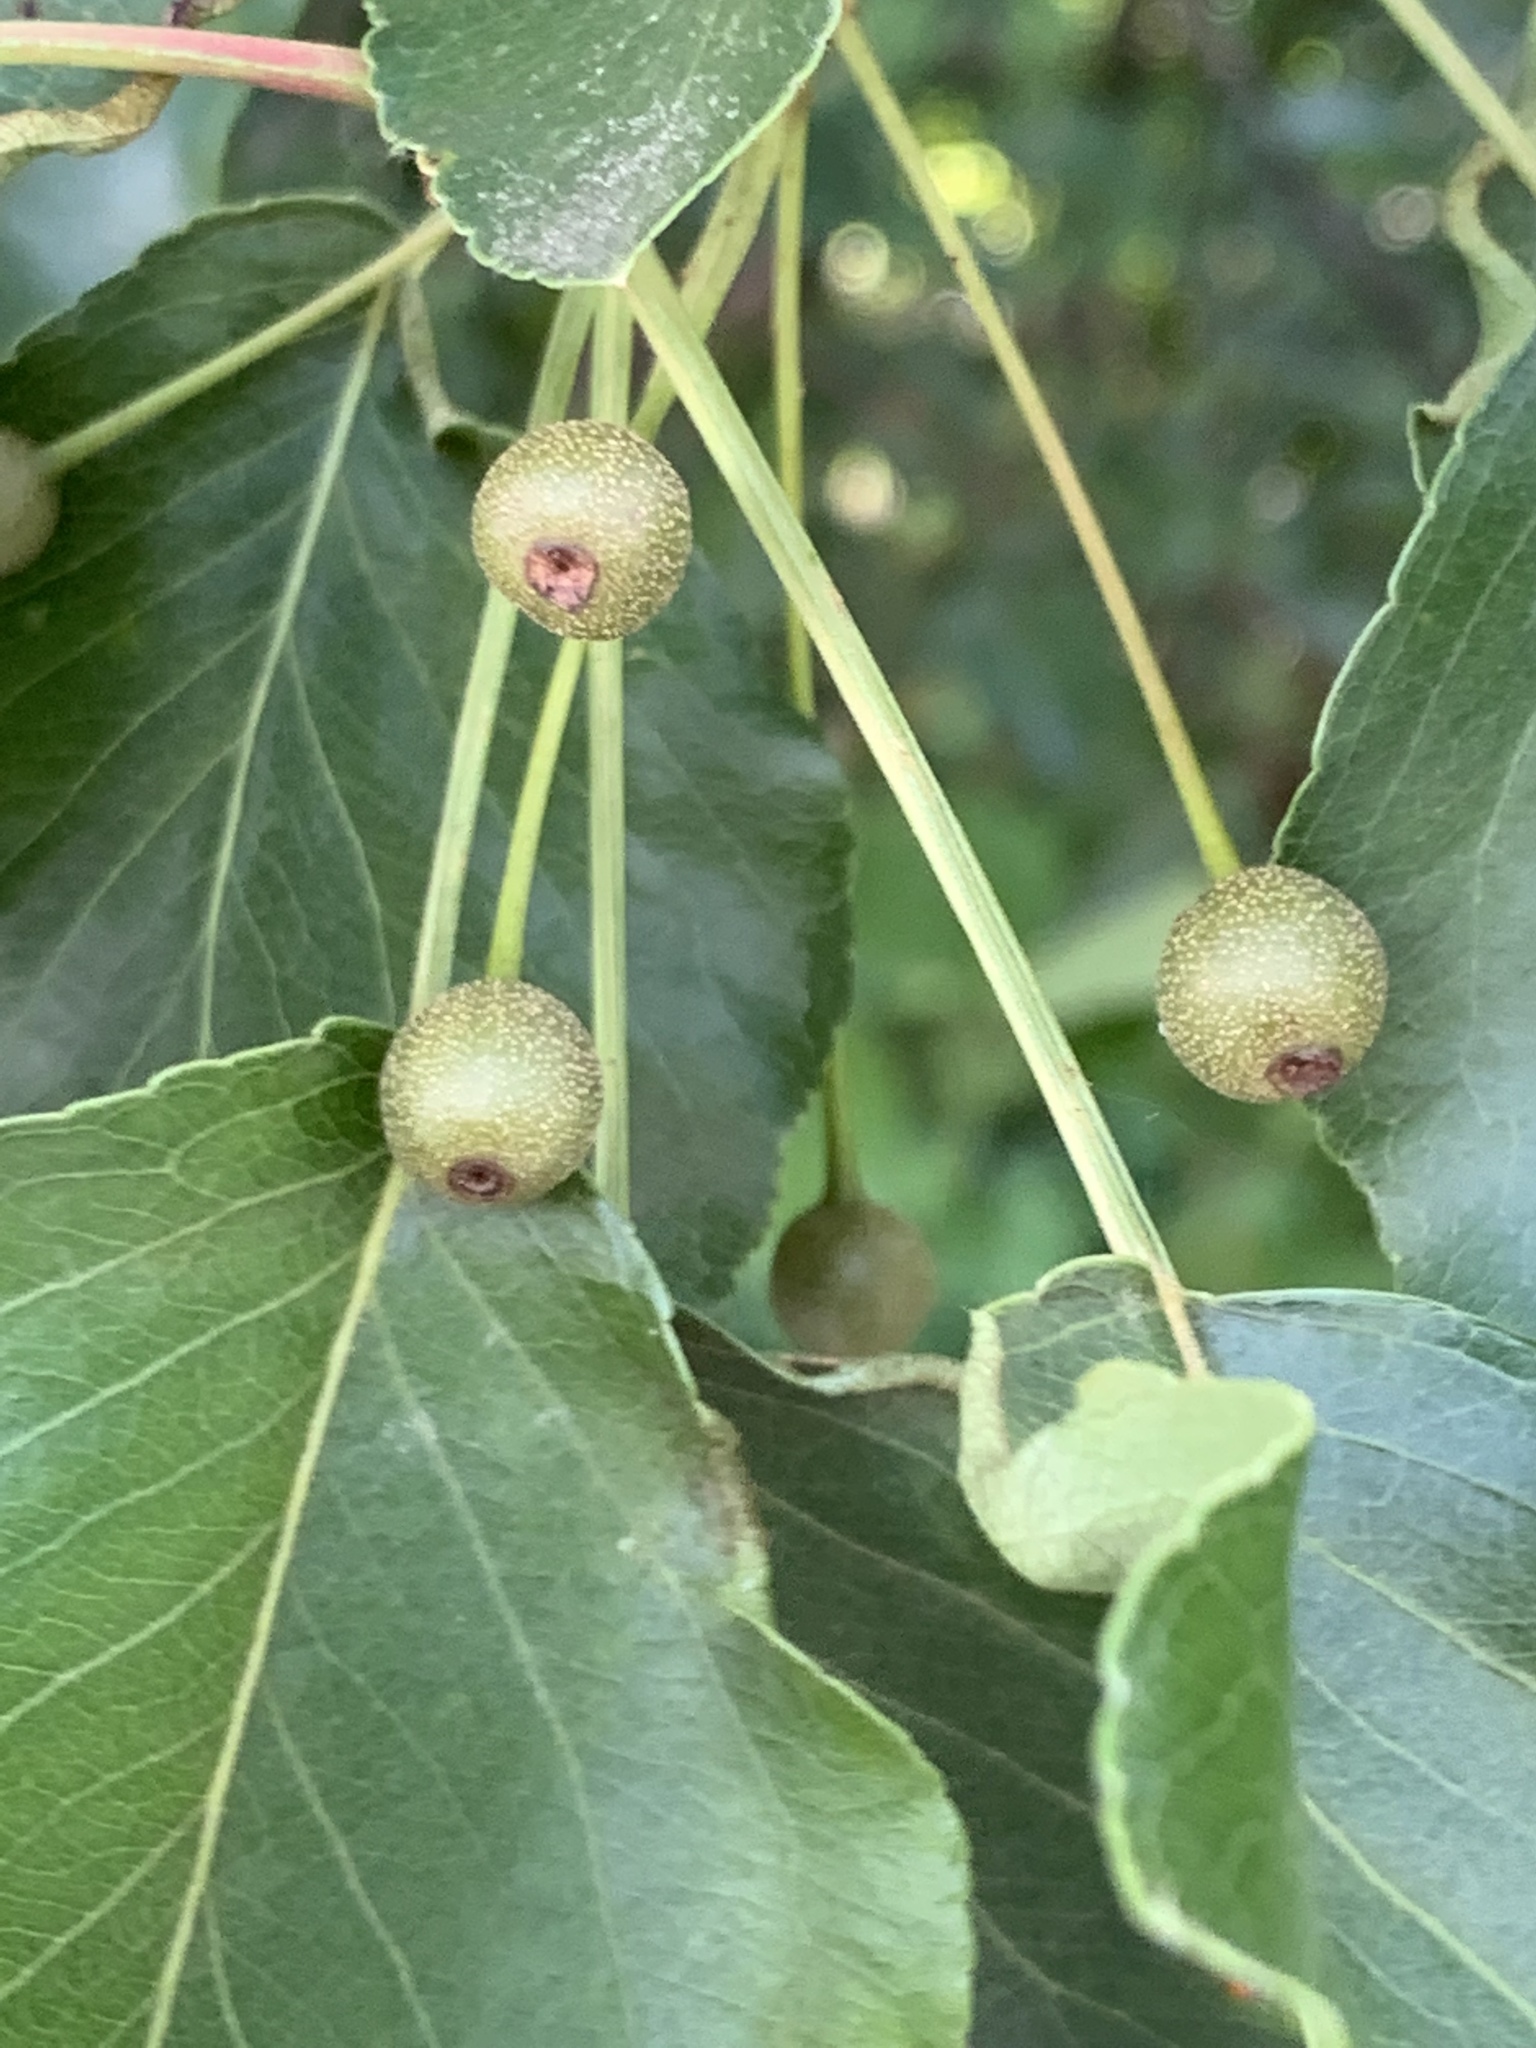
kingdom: Plantae
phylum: Tracheophyta
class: Magnoliopsida
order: Rosales
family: Rosaceae
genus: Pyrus
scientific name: Pyrus calleryana
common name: Callery pear
